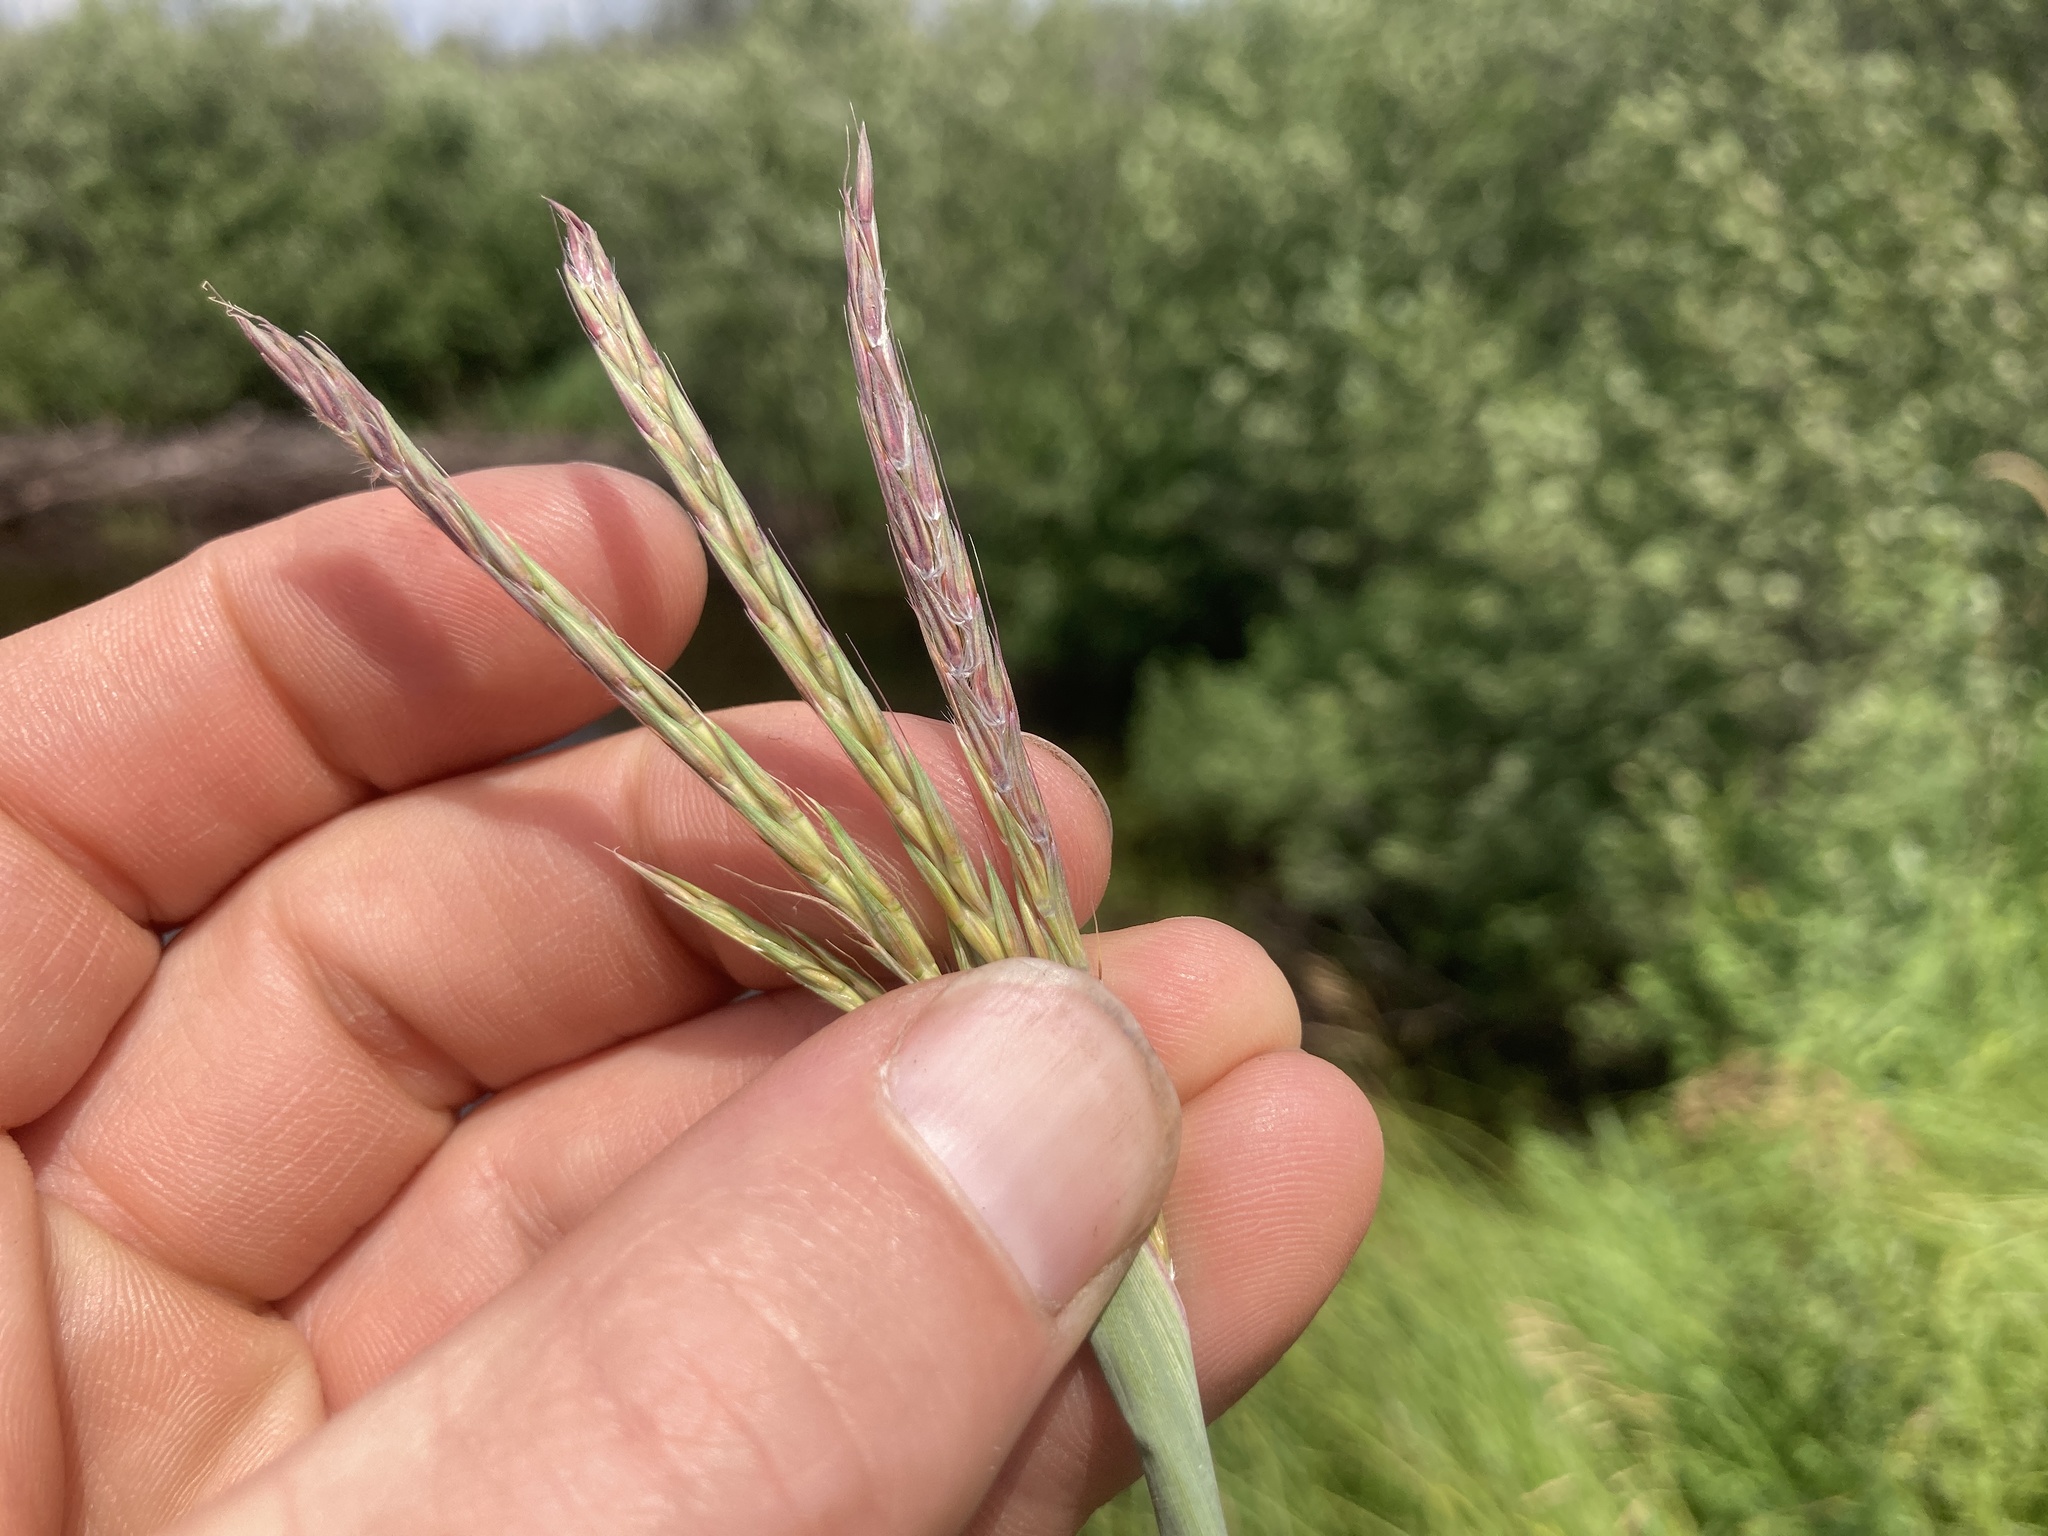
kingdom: Plantae
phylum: Tracheophyta
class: Liliopsida
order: Poales
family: Poaceae
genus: Andropogon
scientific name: Andropogon gerardi
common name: Big bluestem
